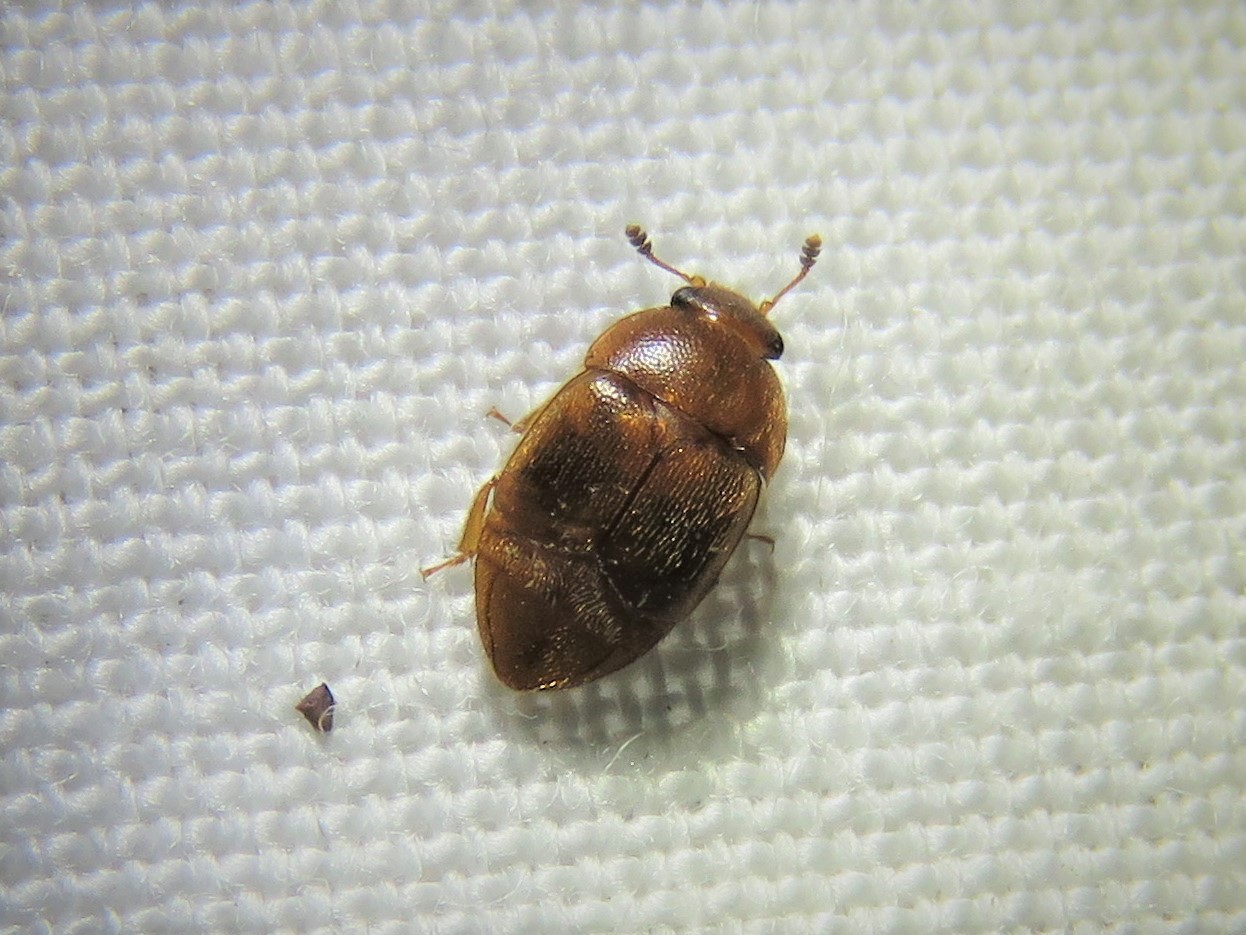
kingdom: Animalia
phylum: Arthropoda
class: Insecta
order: Coleoptera
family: Nitidulidae
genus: Colopterus
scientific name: Colopterus maculatus
